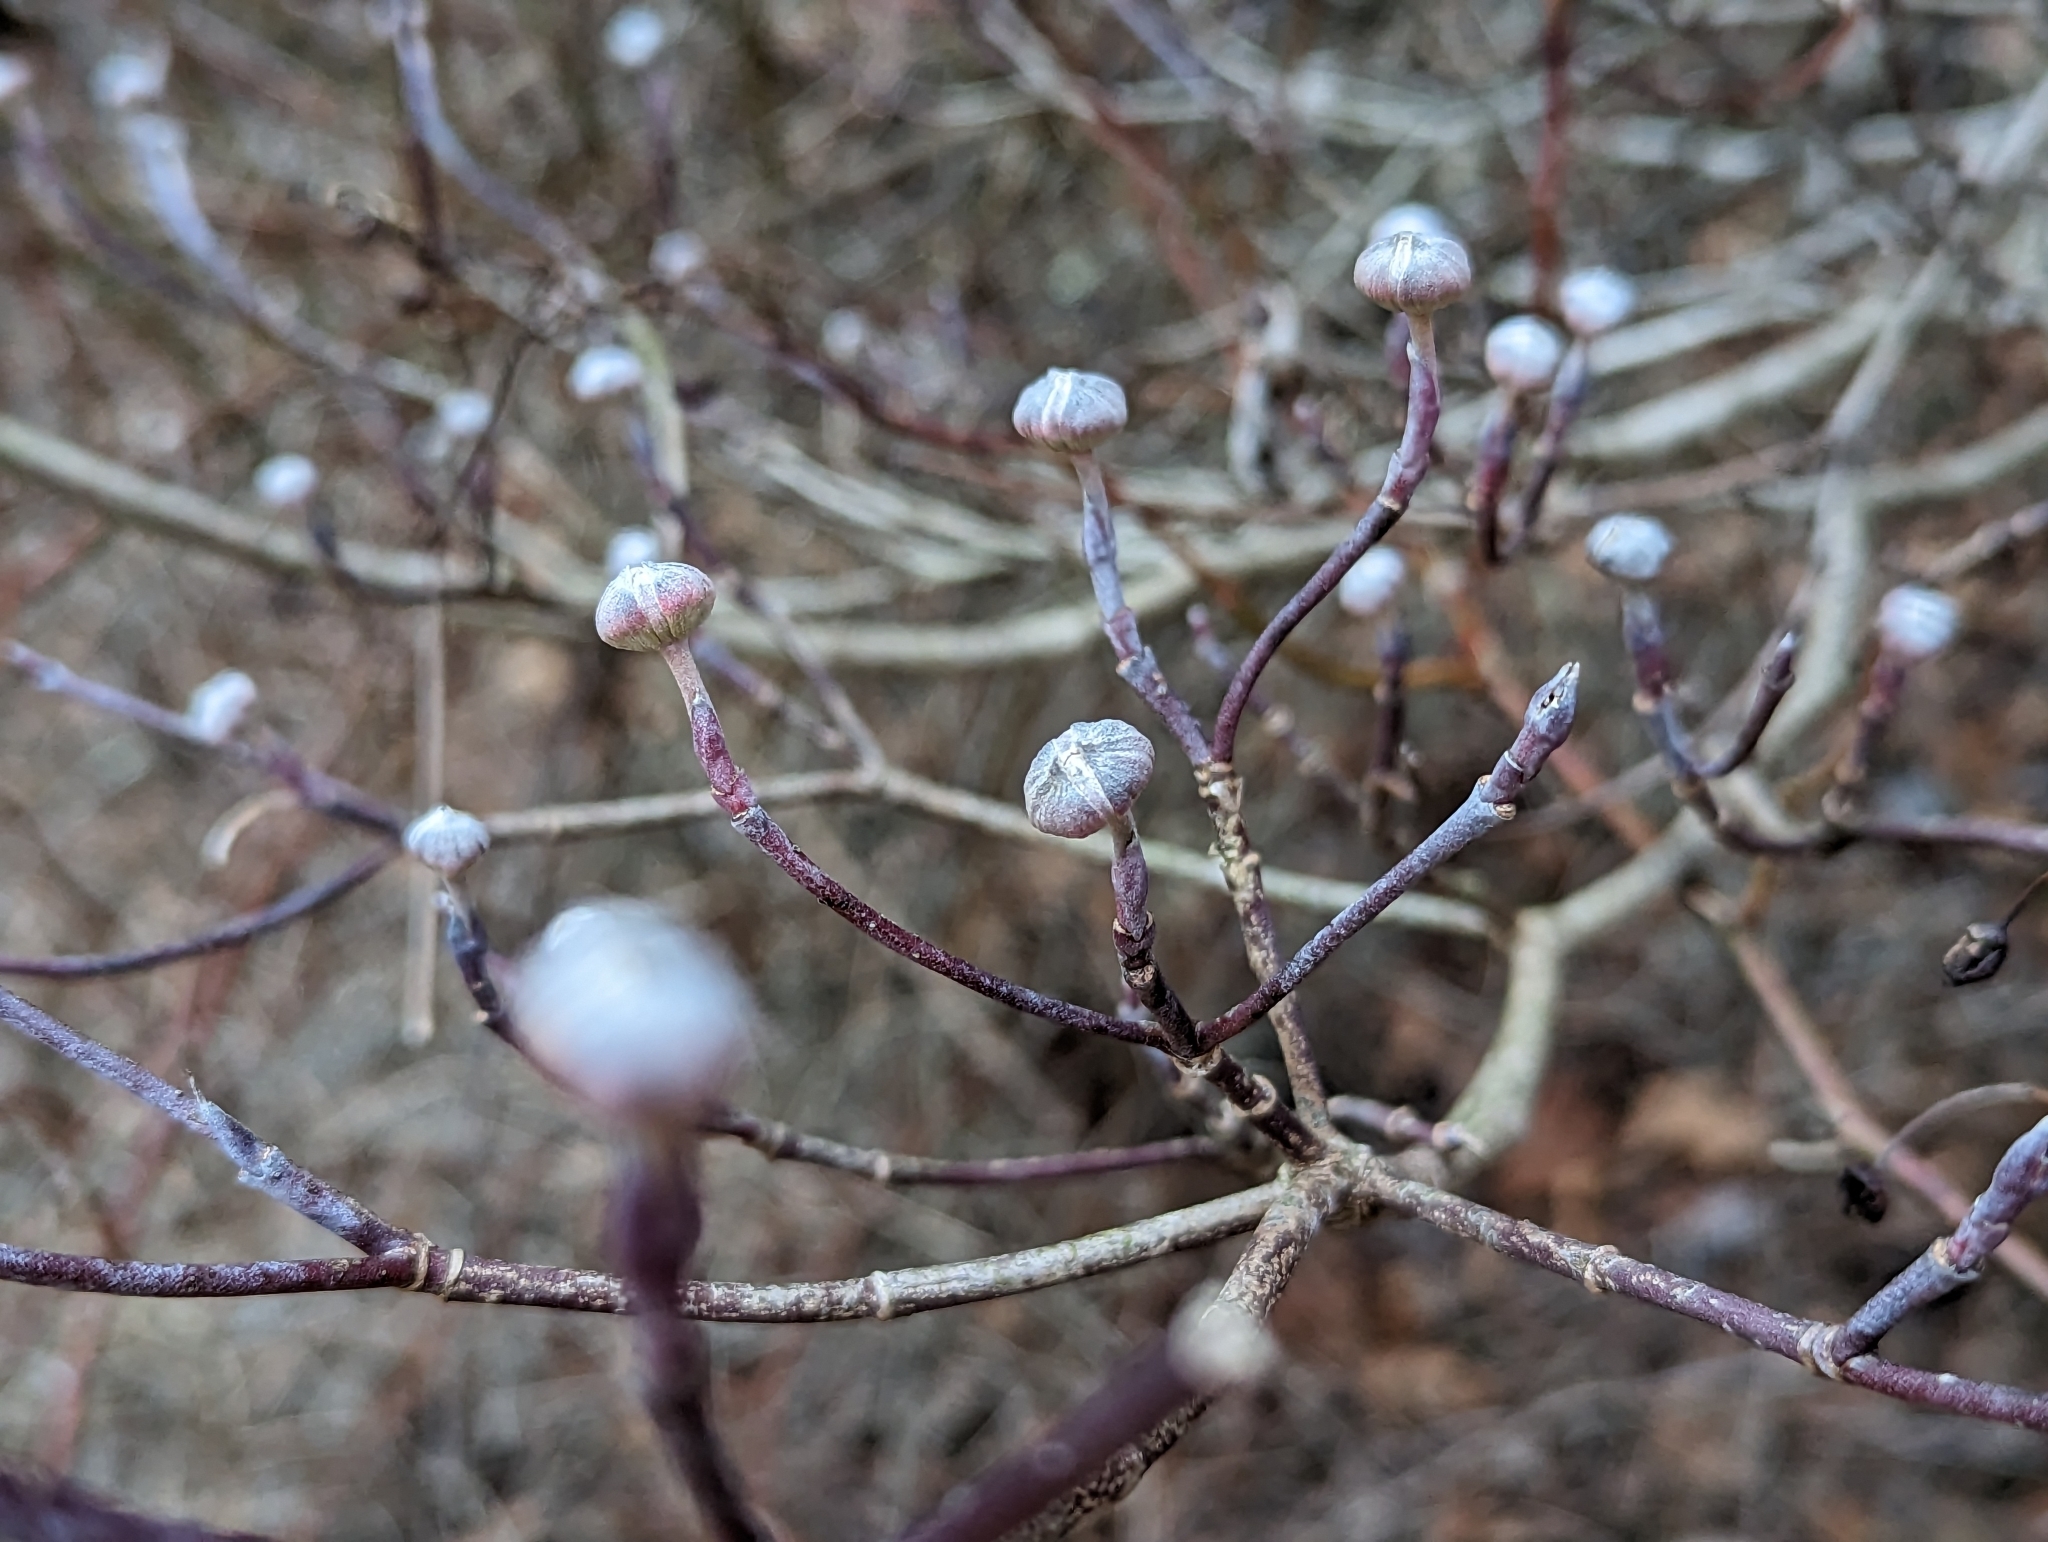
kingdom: Plantae
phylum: Tracheophyta
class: Magnoliopsida
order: Cornales
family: Cornaceae
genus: Cornus
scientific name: Cornus florida
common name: Flowering dogwood
